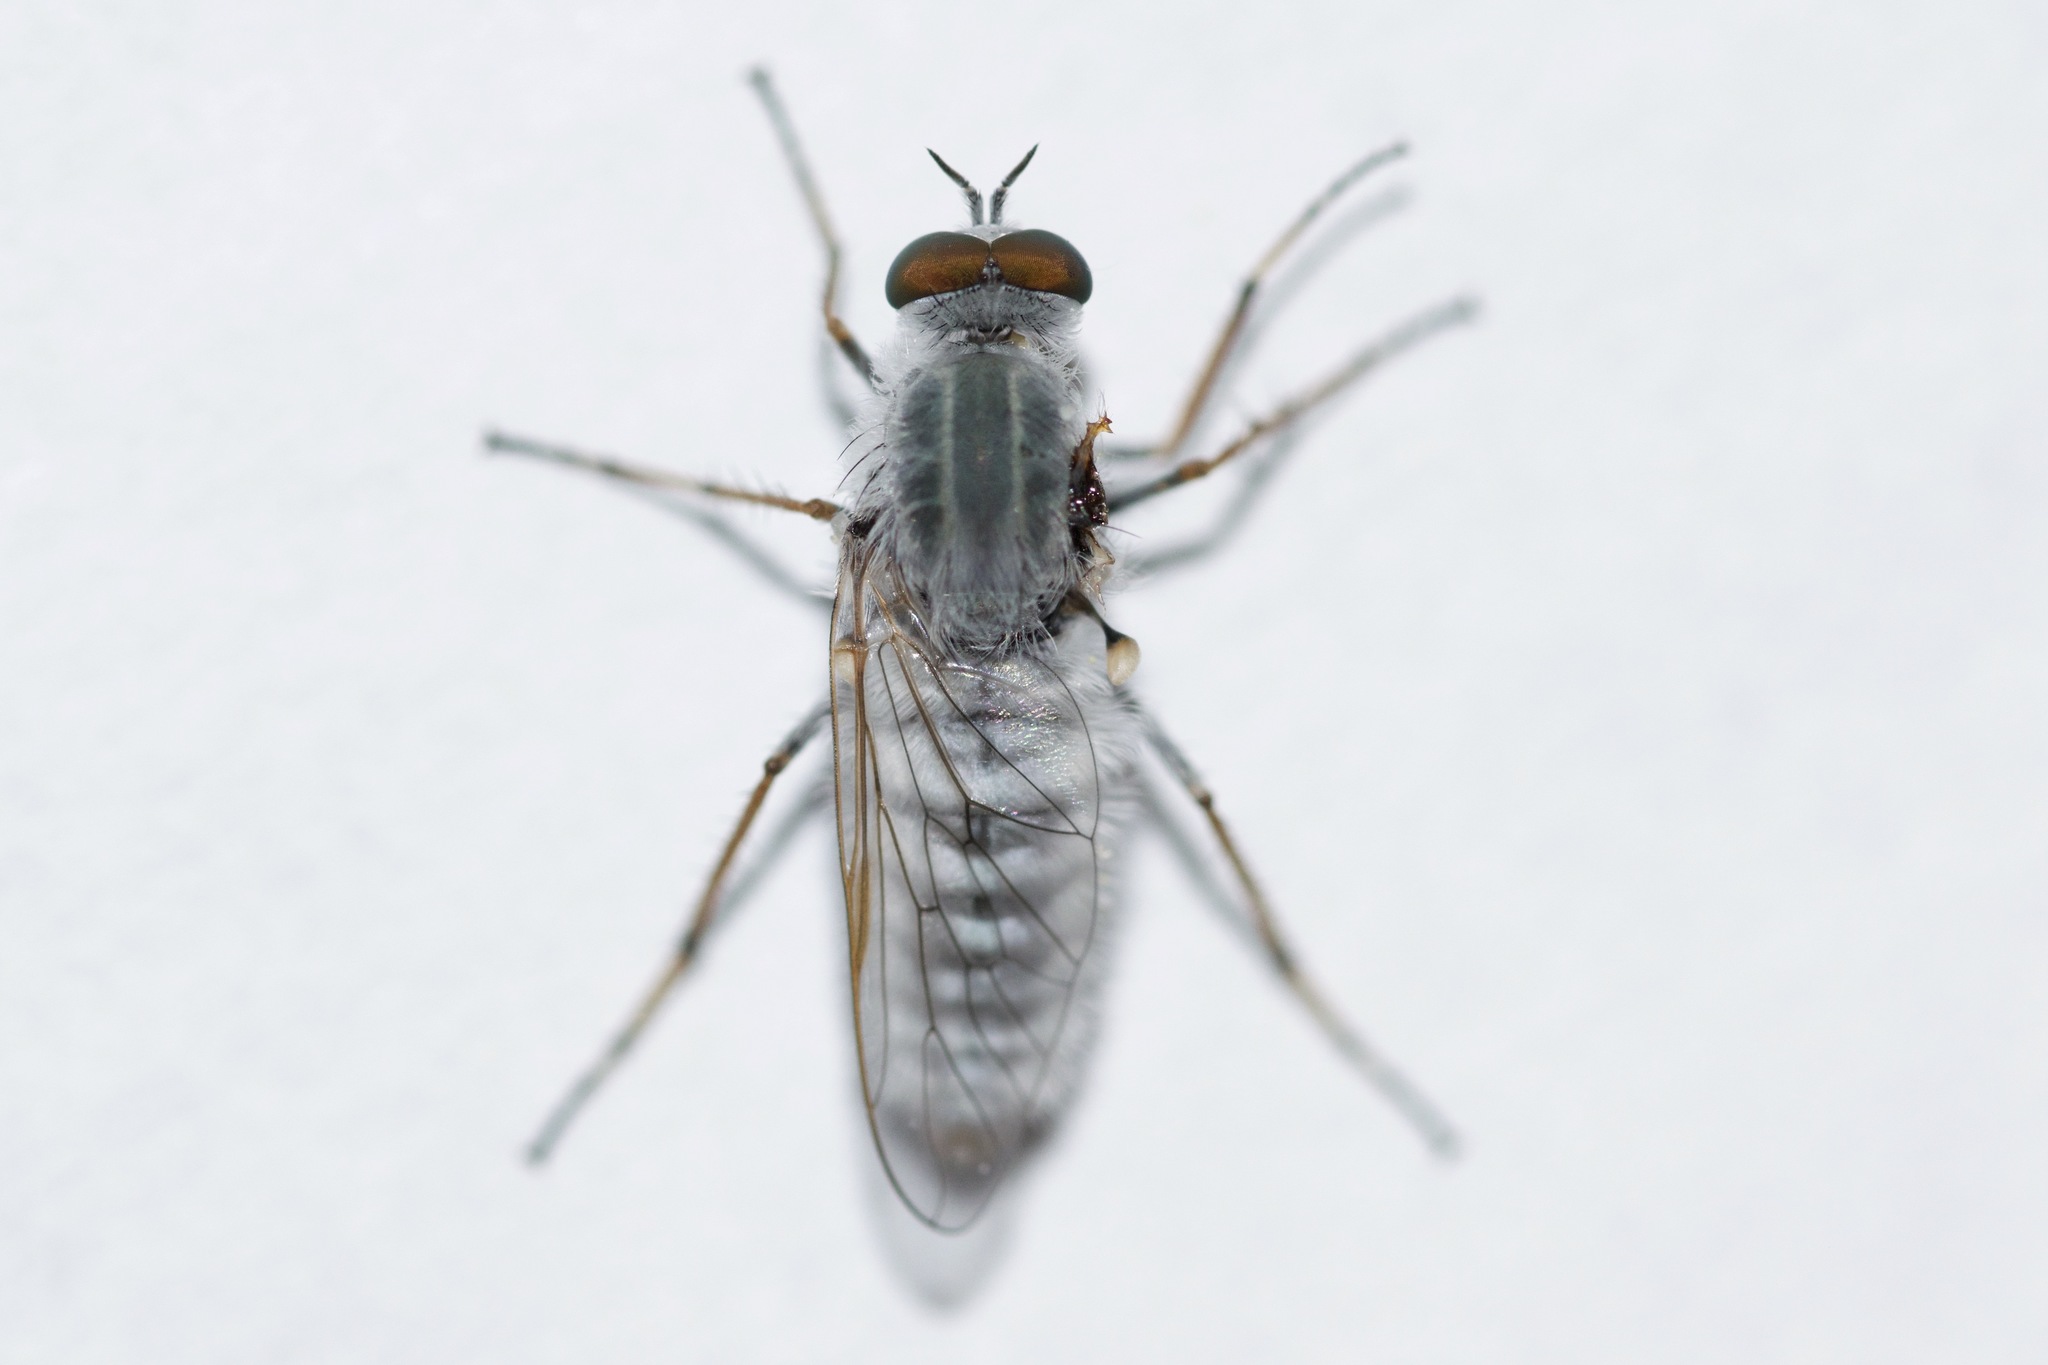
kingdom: Animalia
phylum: Arthropoda
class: Insecta
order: Diptera
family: Therevidae
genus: Pandivirilia
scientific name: Pandivirilia albifrons
